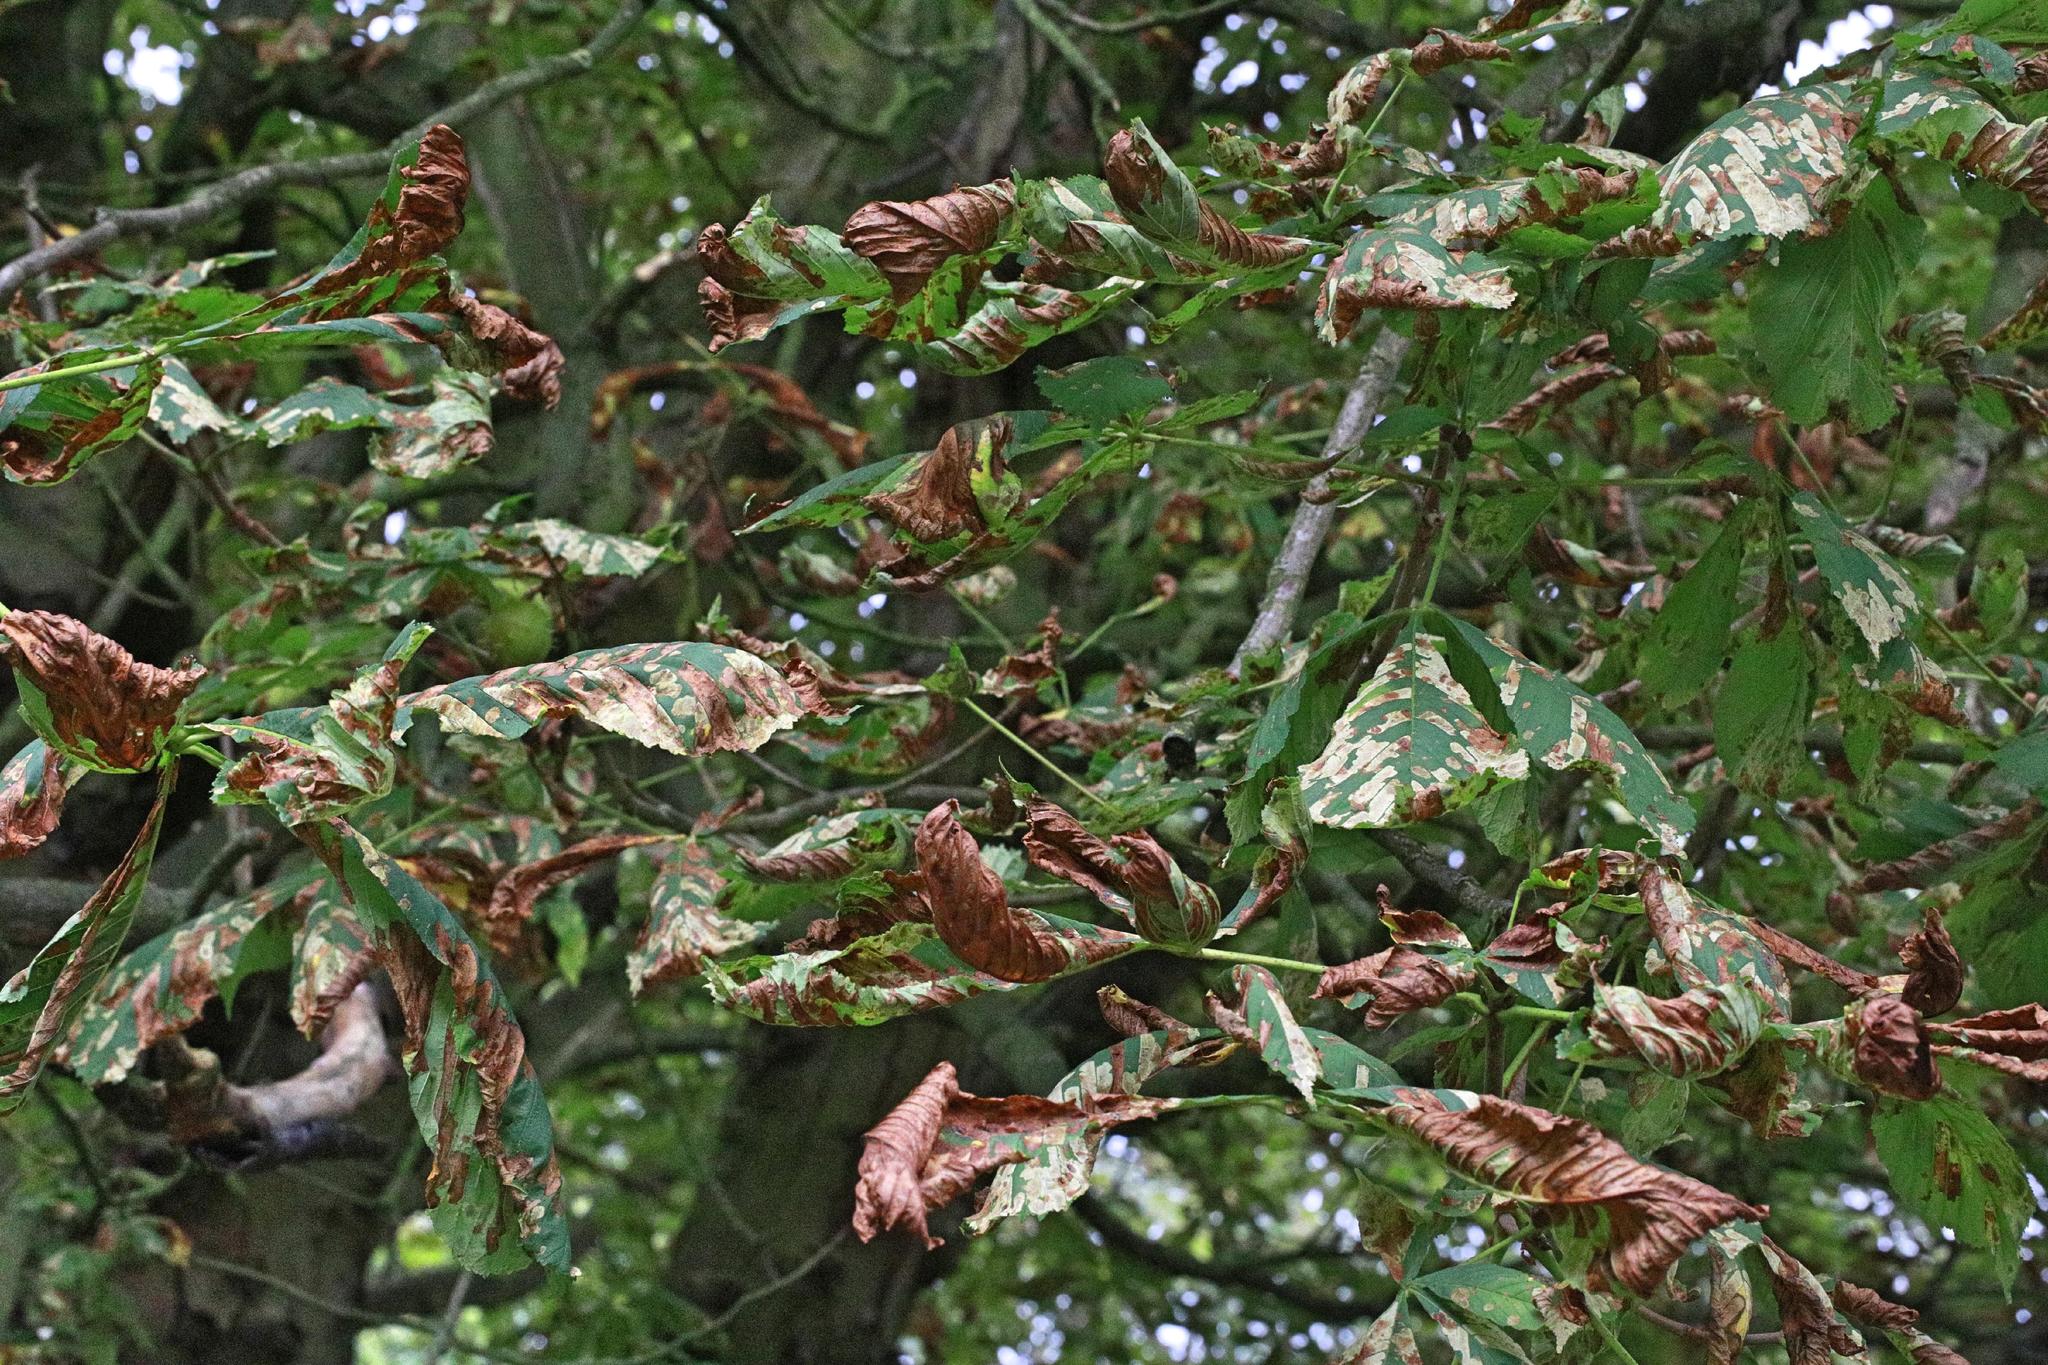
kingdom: Animalia
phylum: Arthropoda
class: Insecta
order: Lepidoptera
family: Gracillariidae
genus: Cameraria
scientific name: Cameraria ohridella
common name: Horse-chestnut leaf-miner
